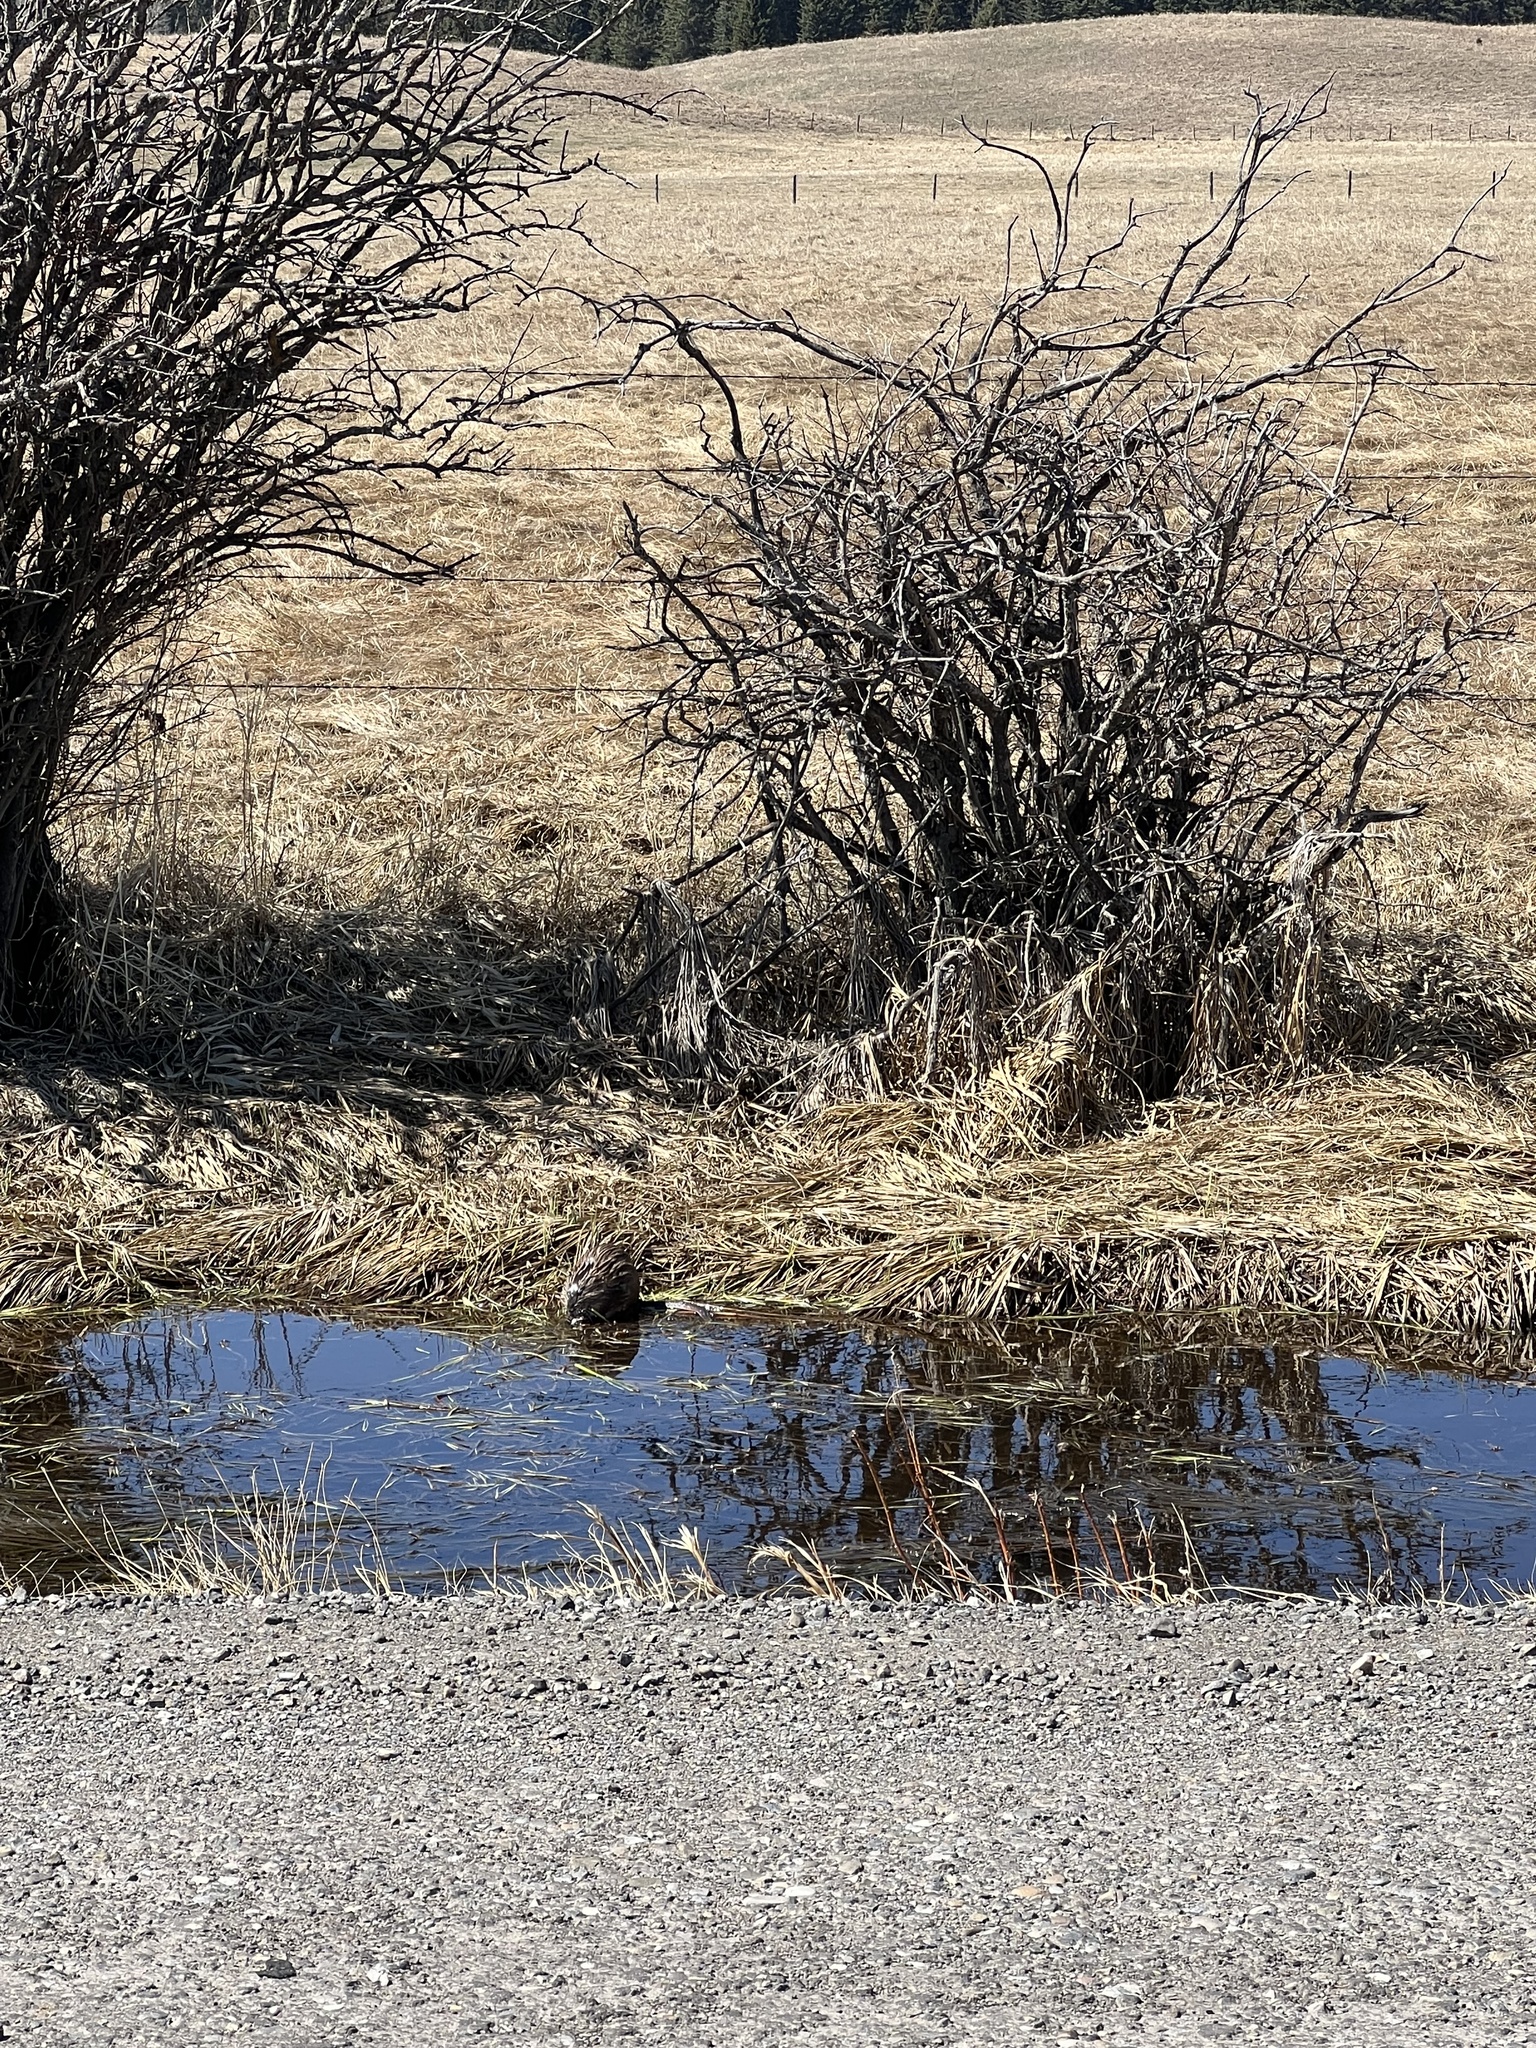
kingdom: Animalia
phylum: Chordata
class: Mammalia
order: Rodentia
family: Cricetidae
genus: Ondatra
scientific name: Ondatra zibethicus
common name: Muskrat
